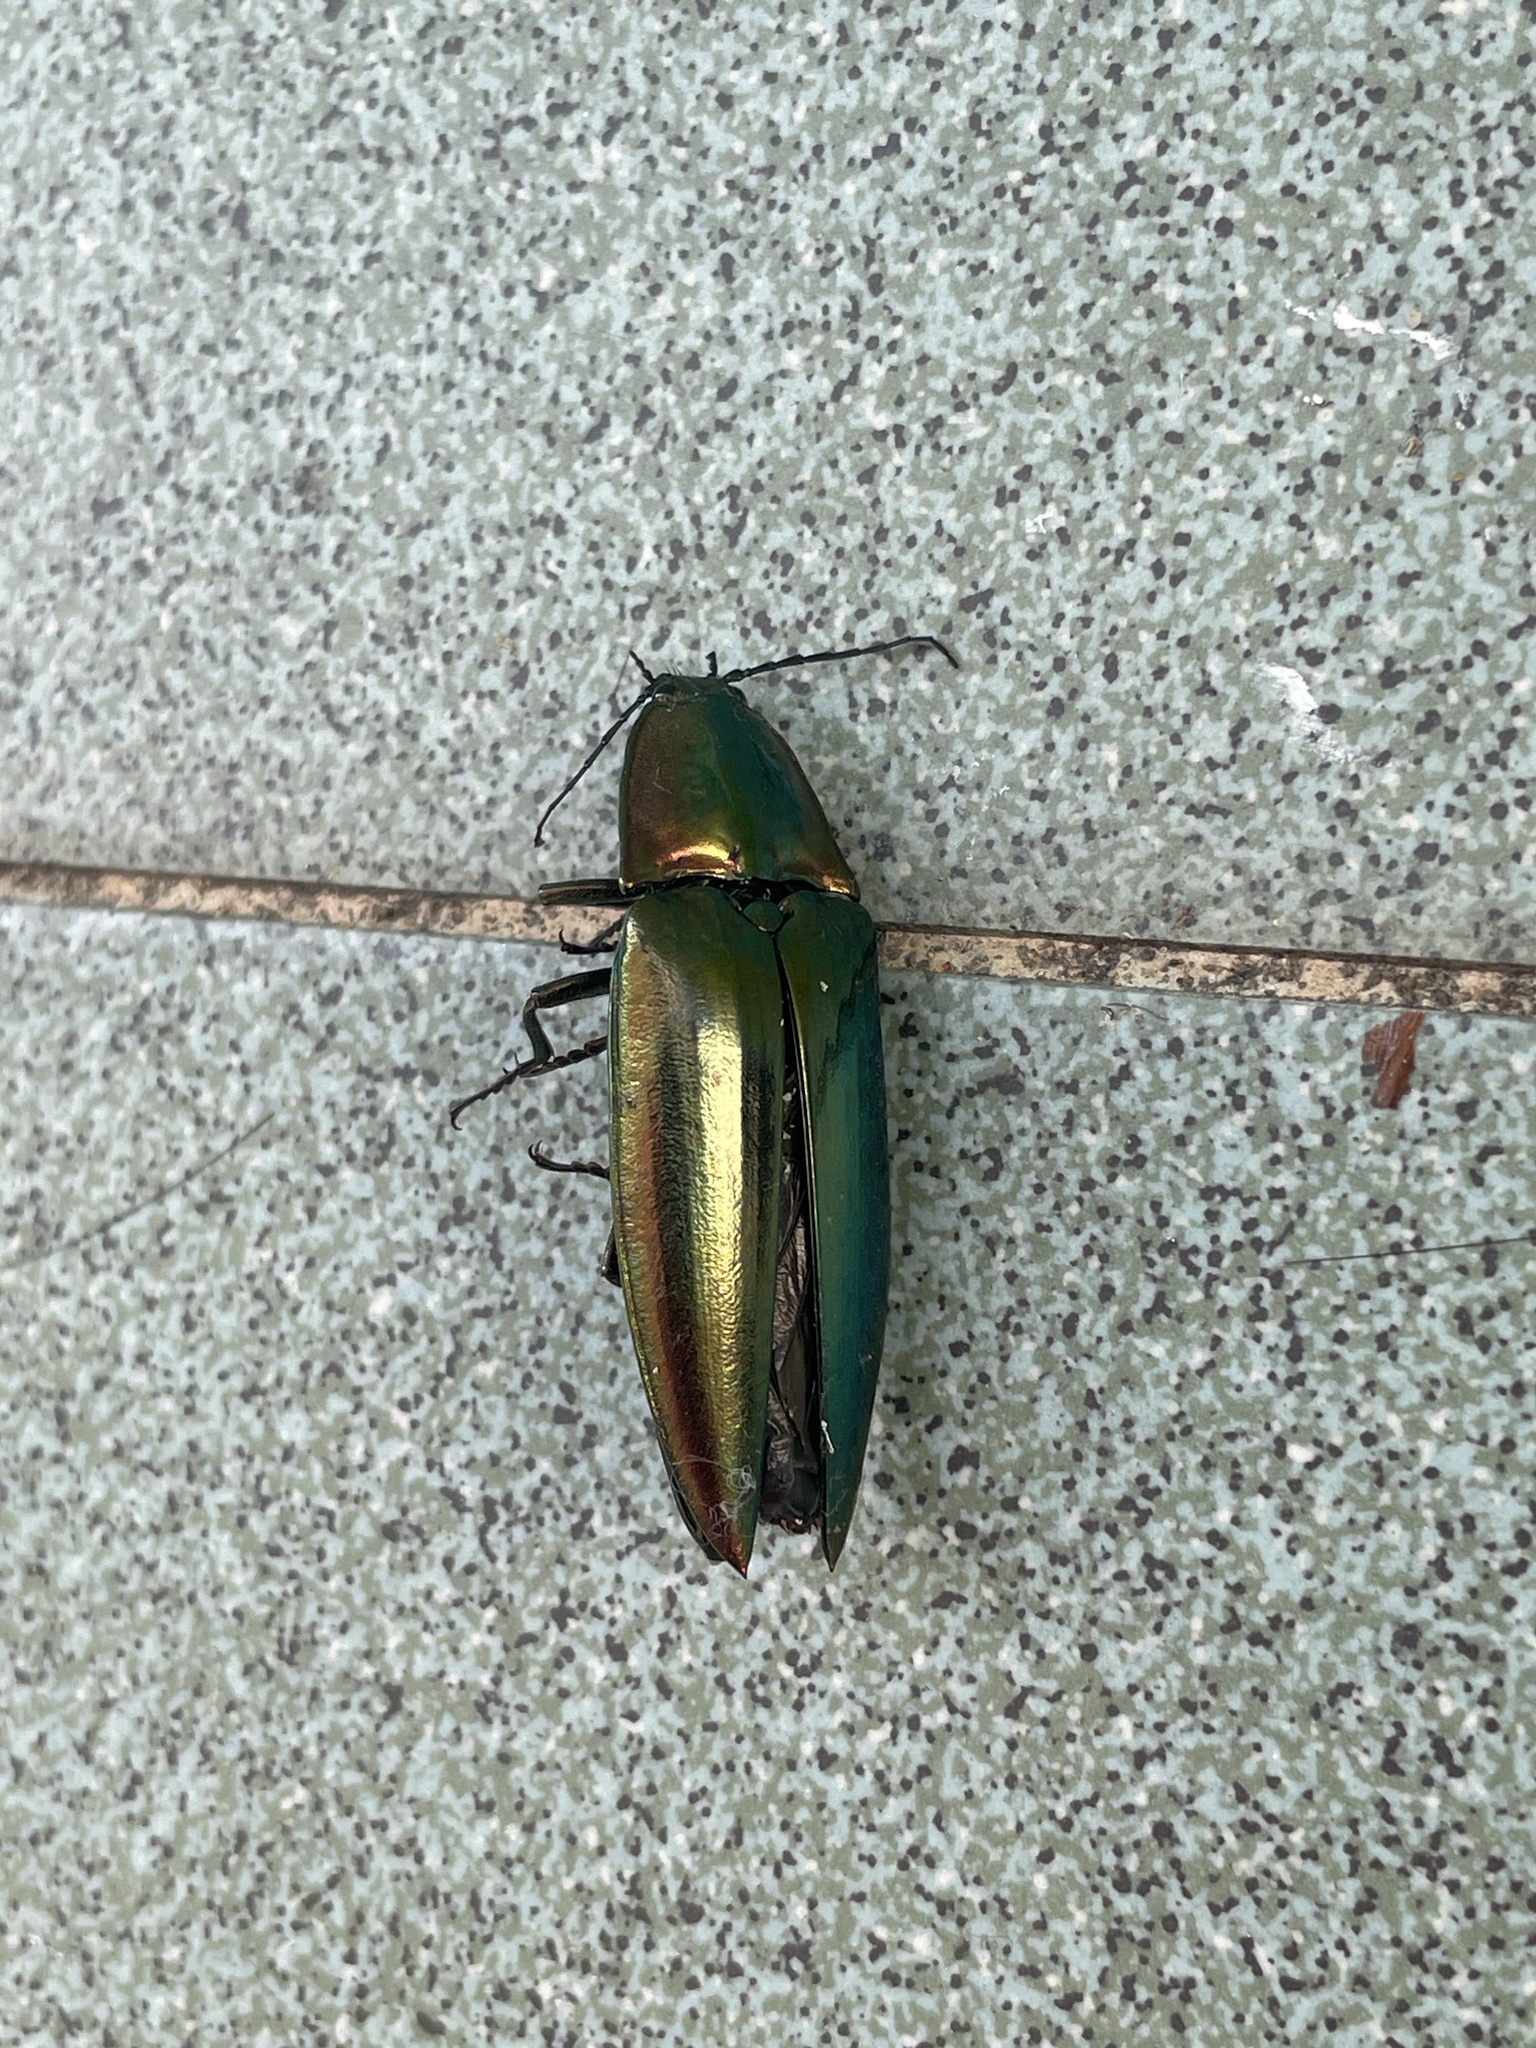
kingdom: Animalia
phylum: Arthropoda
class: Insecta
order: Coleoptera
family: Elateridae
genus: Campsosternus
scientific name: Campsosternus auratus
